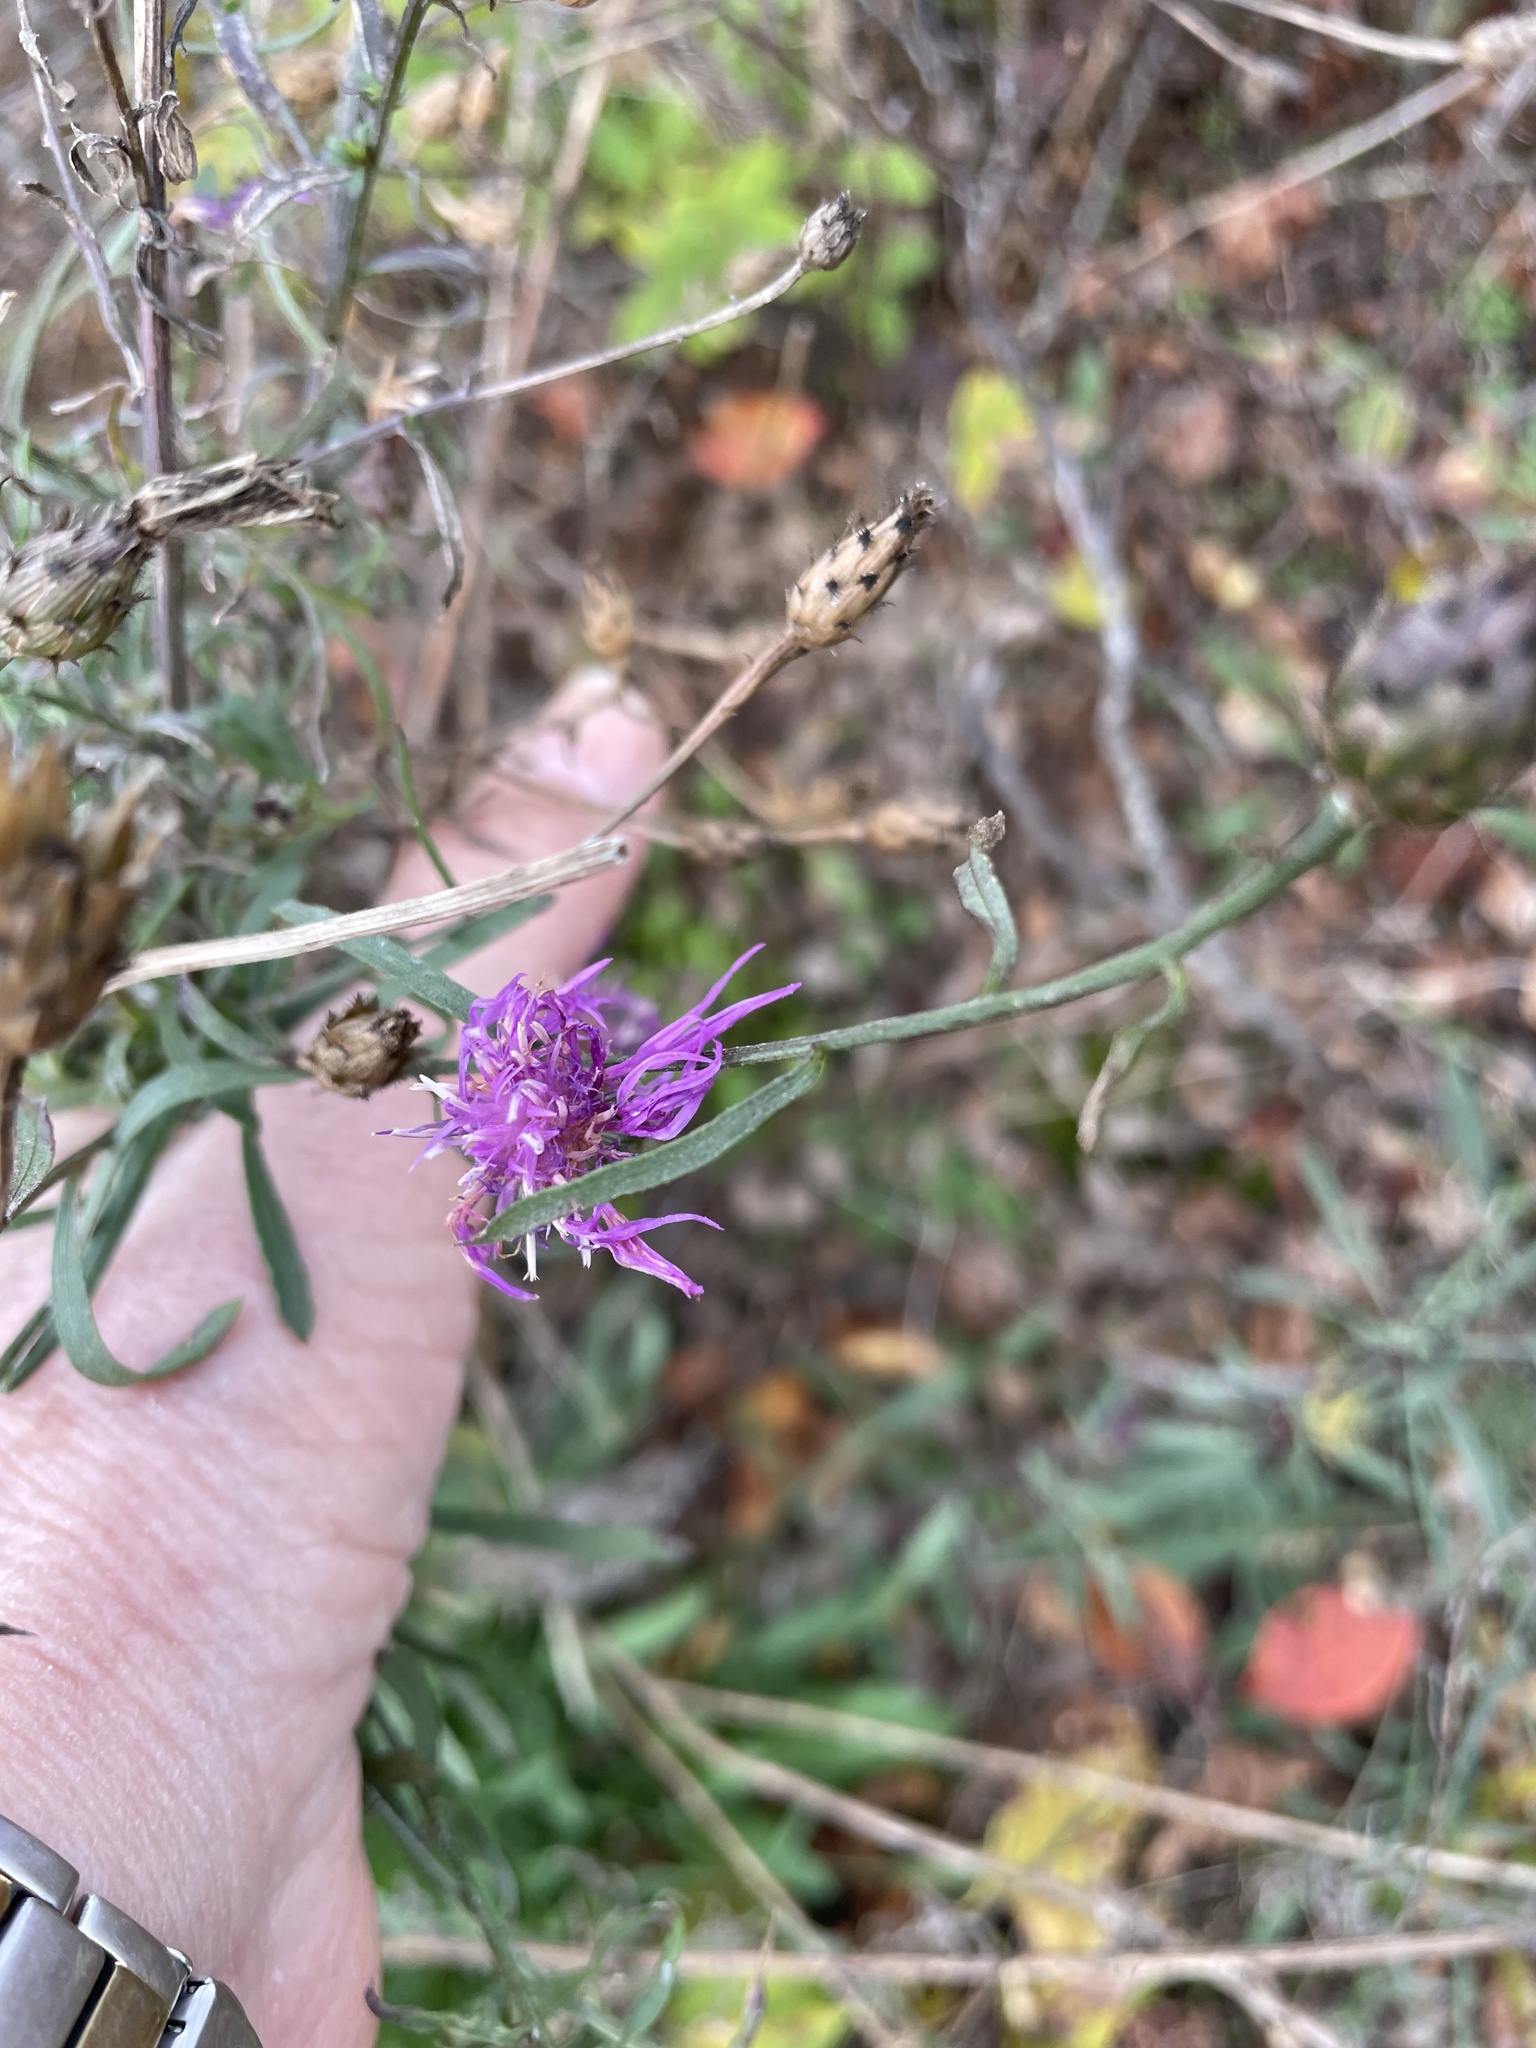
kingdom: Plantae
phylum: Tracheophyta
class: Magnoliopsida
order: Asterales
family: Asteraceae
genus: Centaurea
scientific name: Centaurea stoebe
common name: Spotted knapweed
